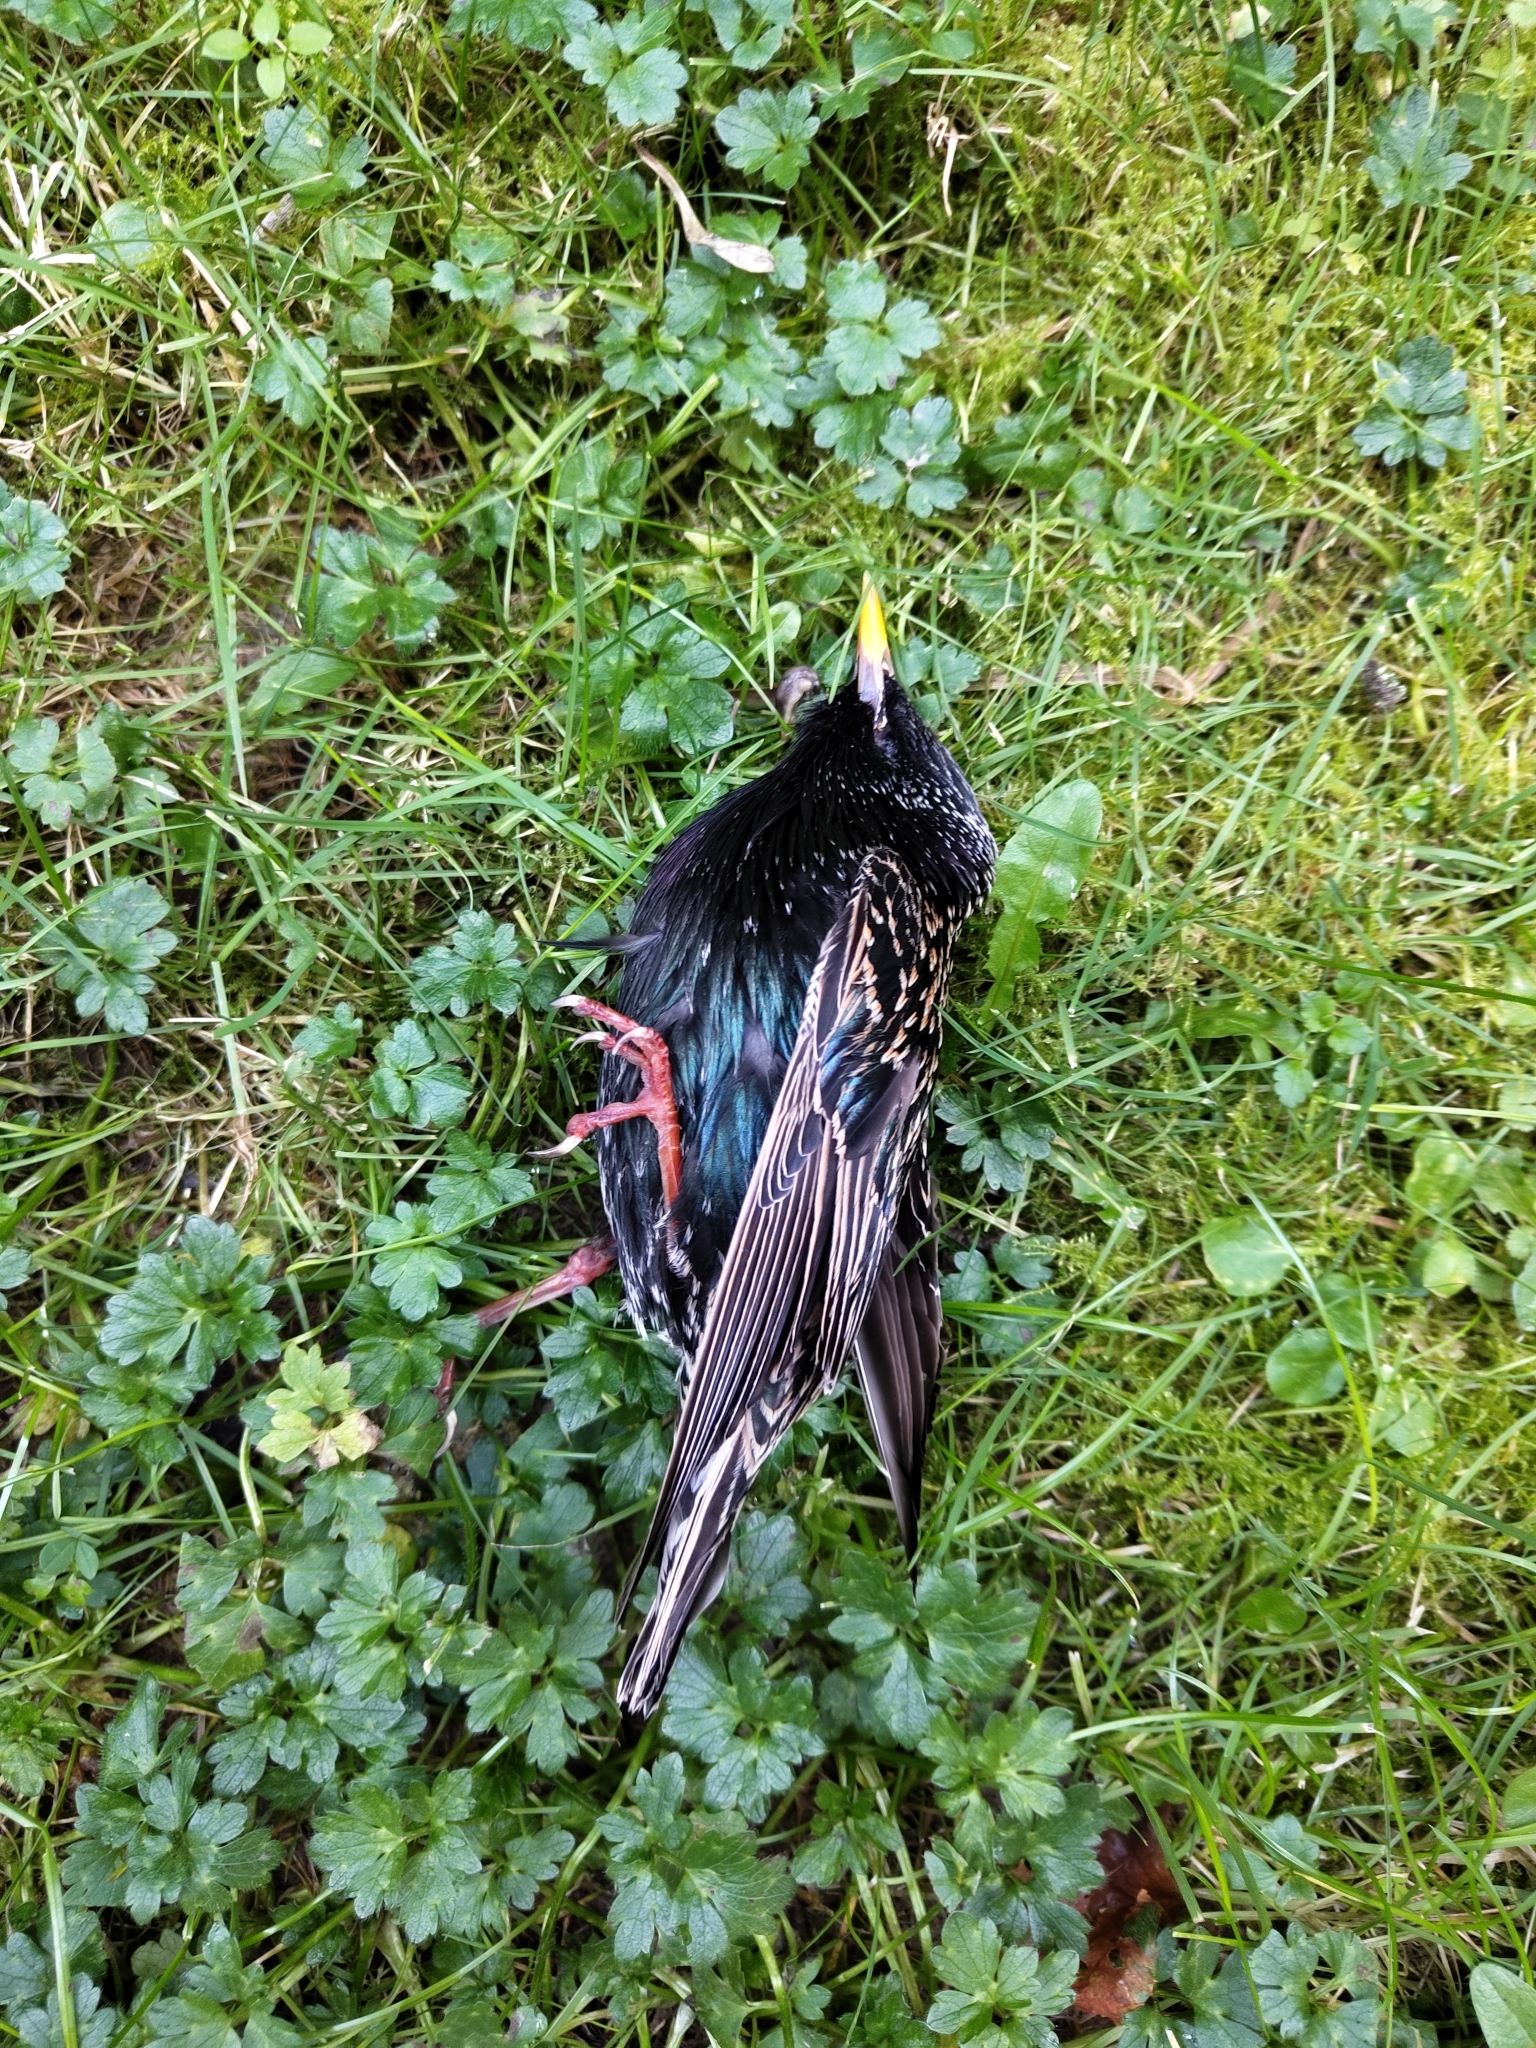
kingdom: Animalia
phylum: Chordata
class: Aves
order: Passeriformes
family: Sturnidae
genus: Sturnus
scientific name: Sturnus vulgaris
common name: Common starling
